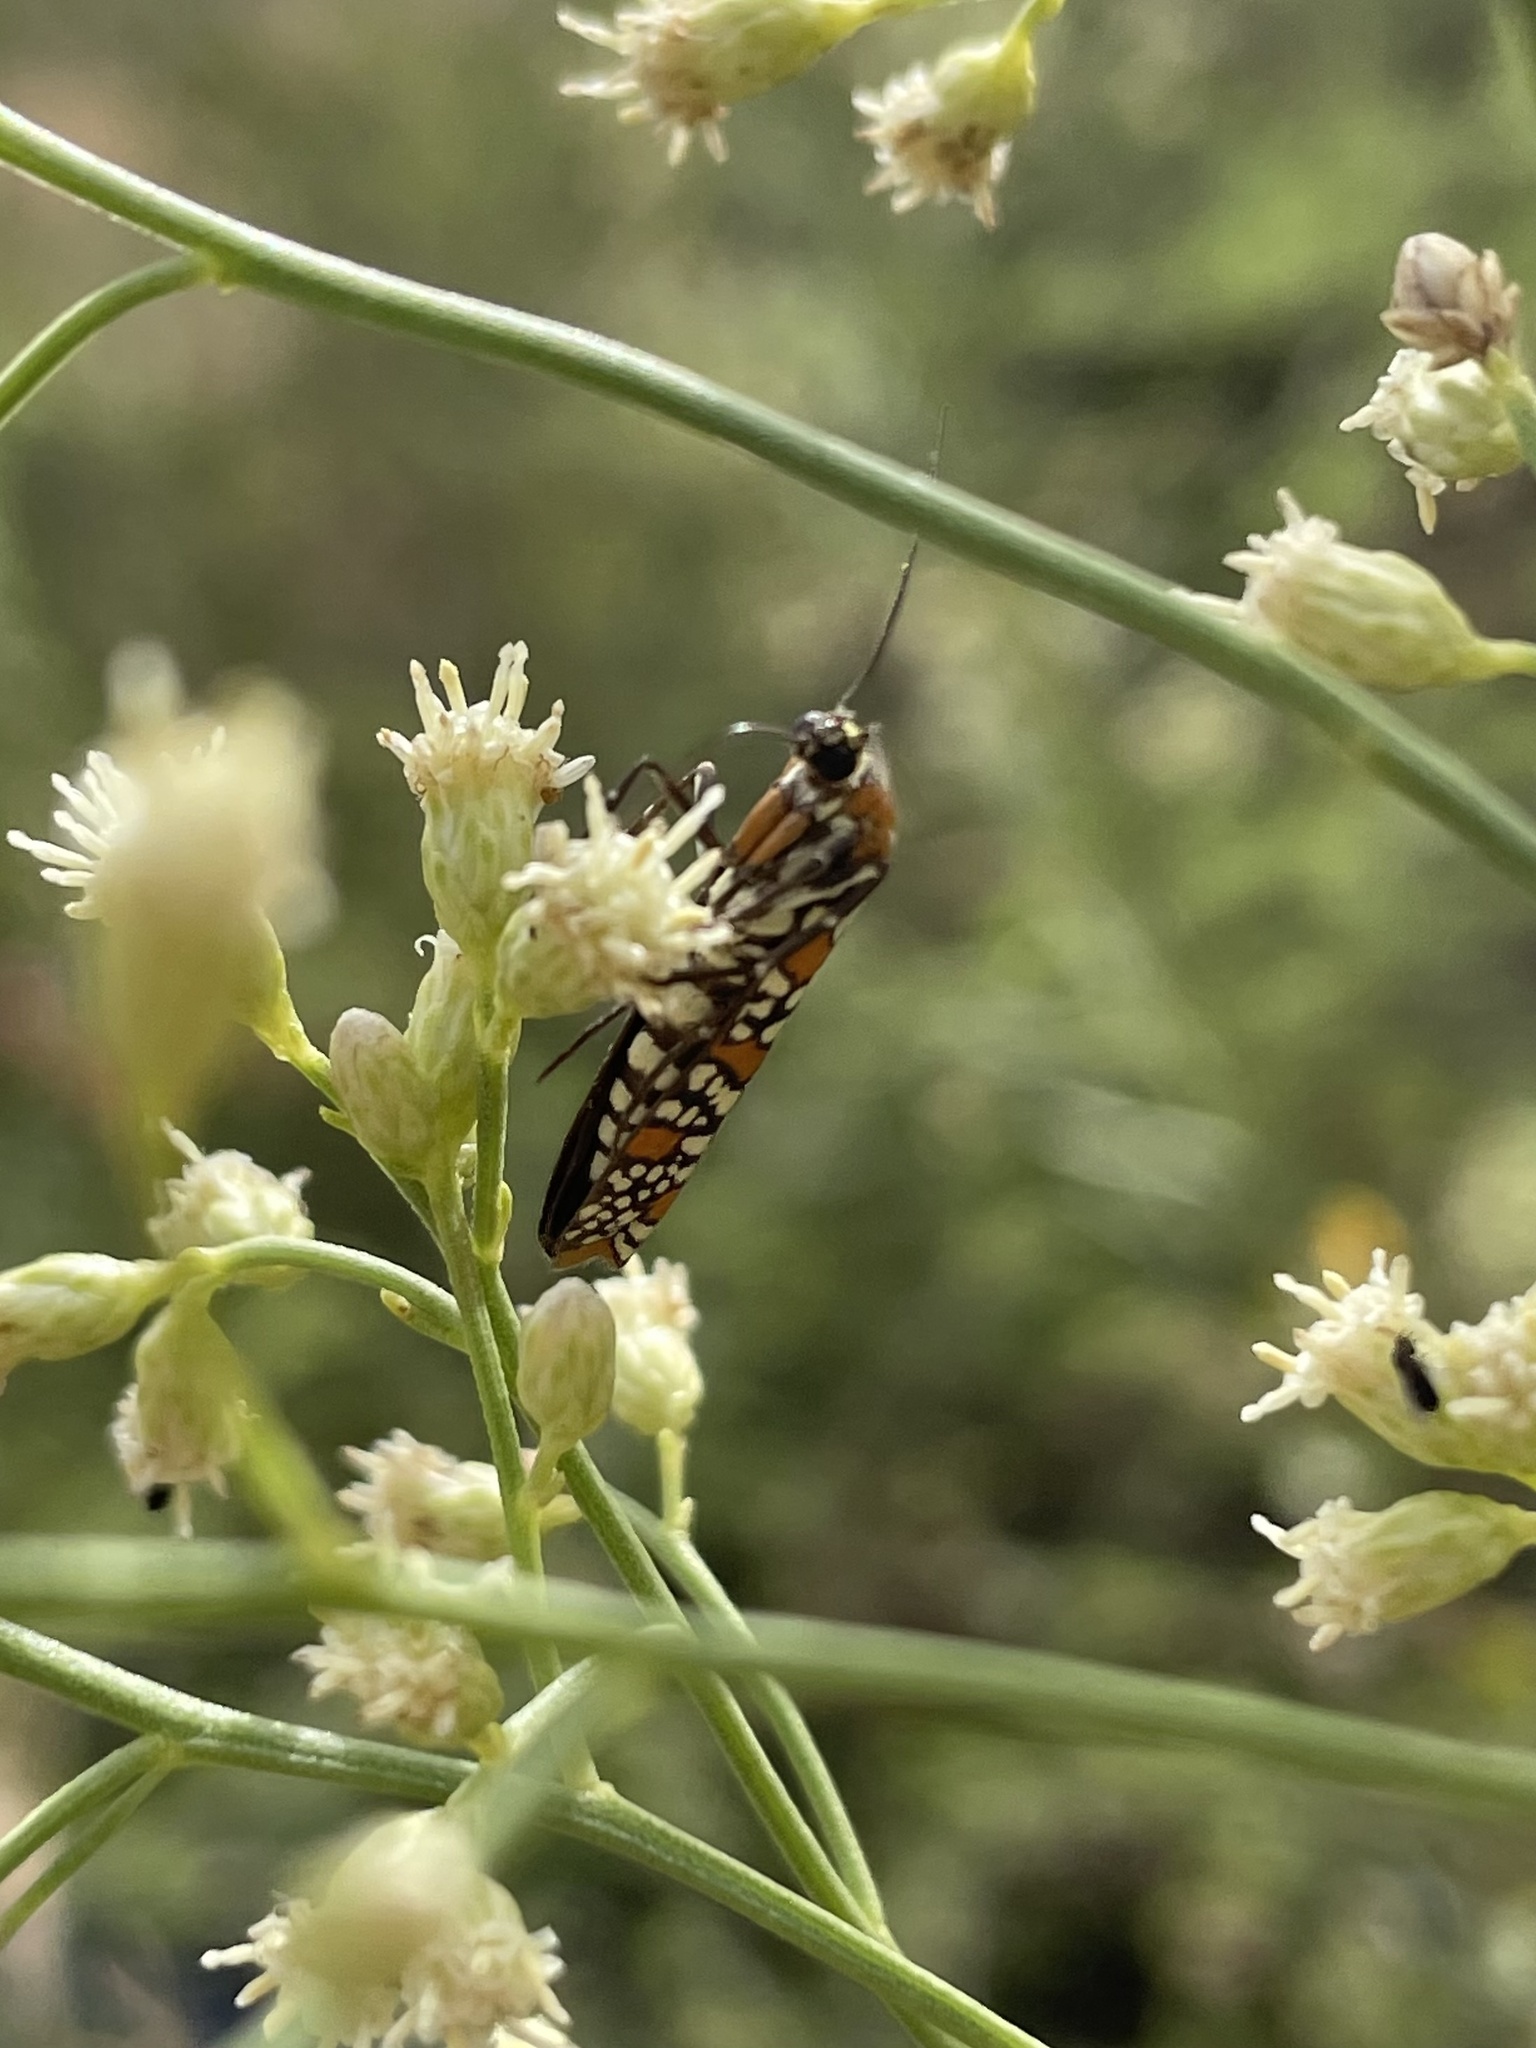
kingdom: Animalia
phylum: Arthropoda
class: Insecta
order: Lepidoptera
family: Attevidae
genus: Atteva
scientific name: Atteva punctella
